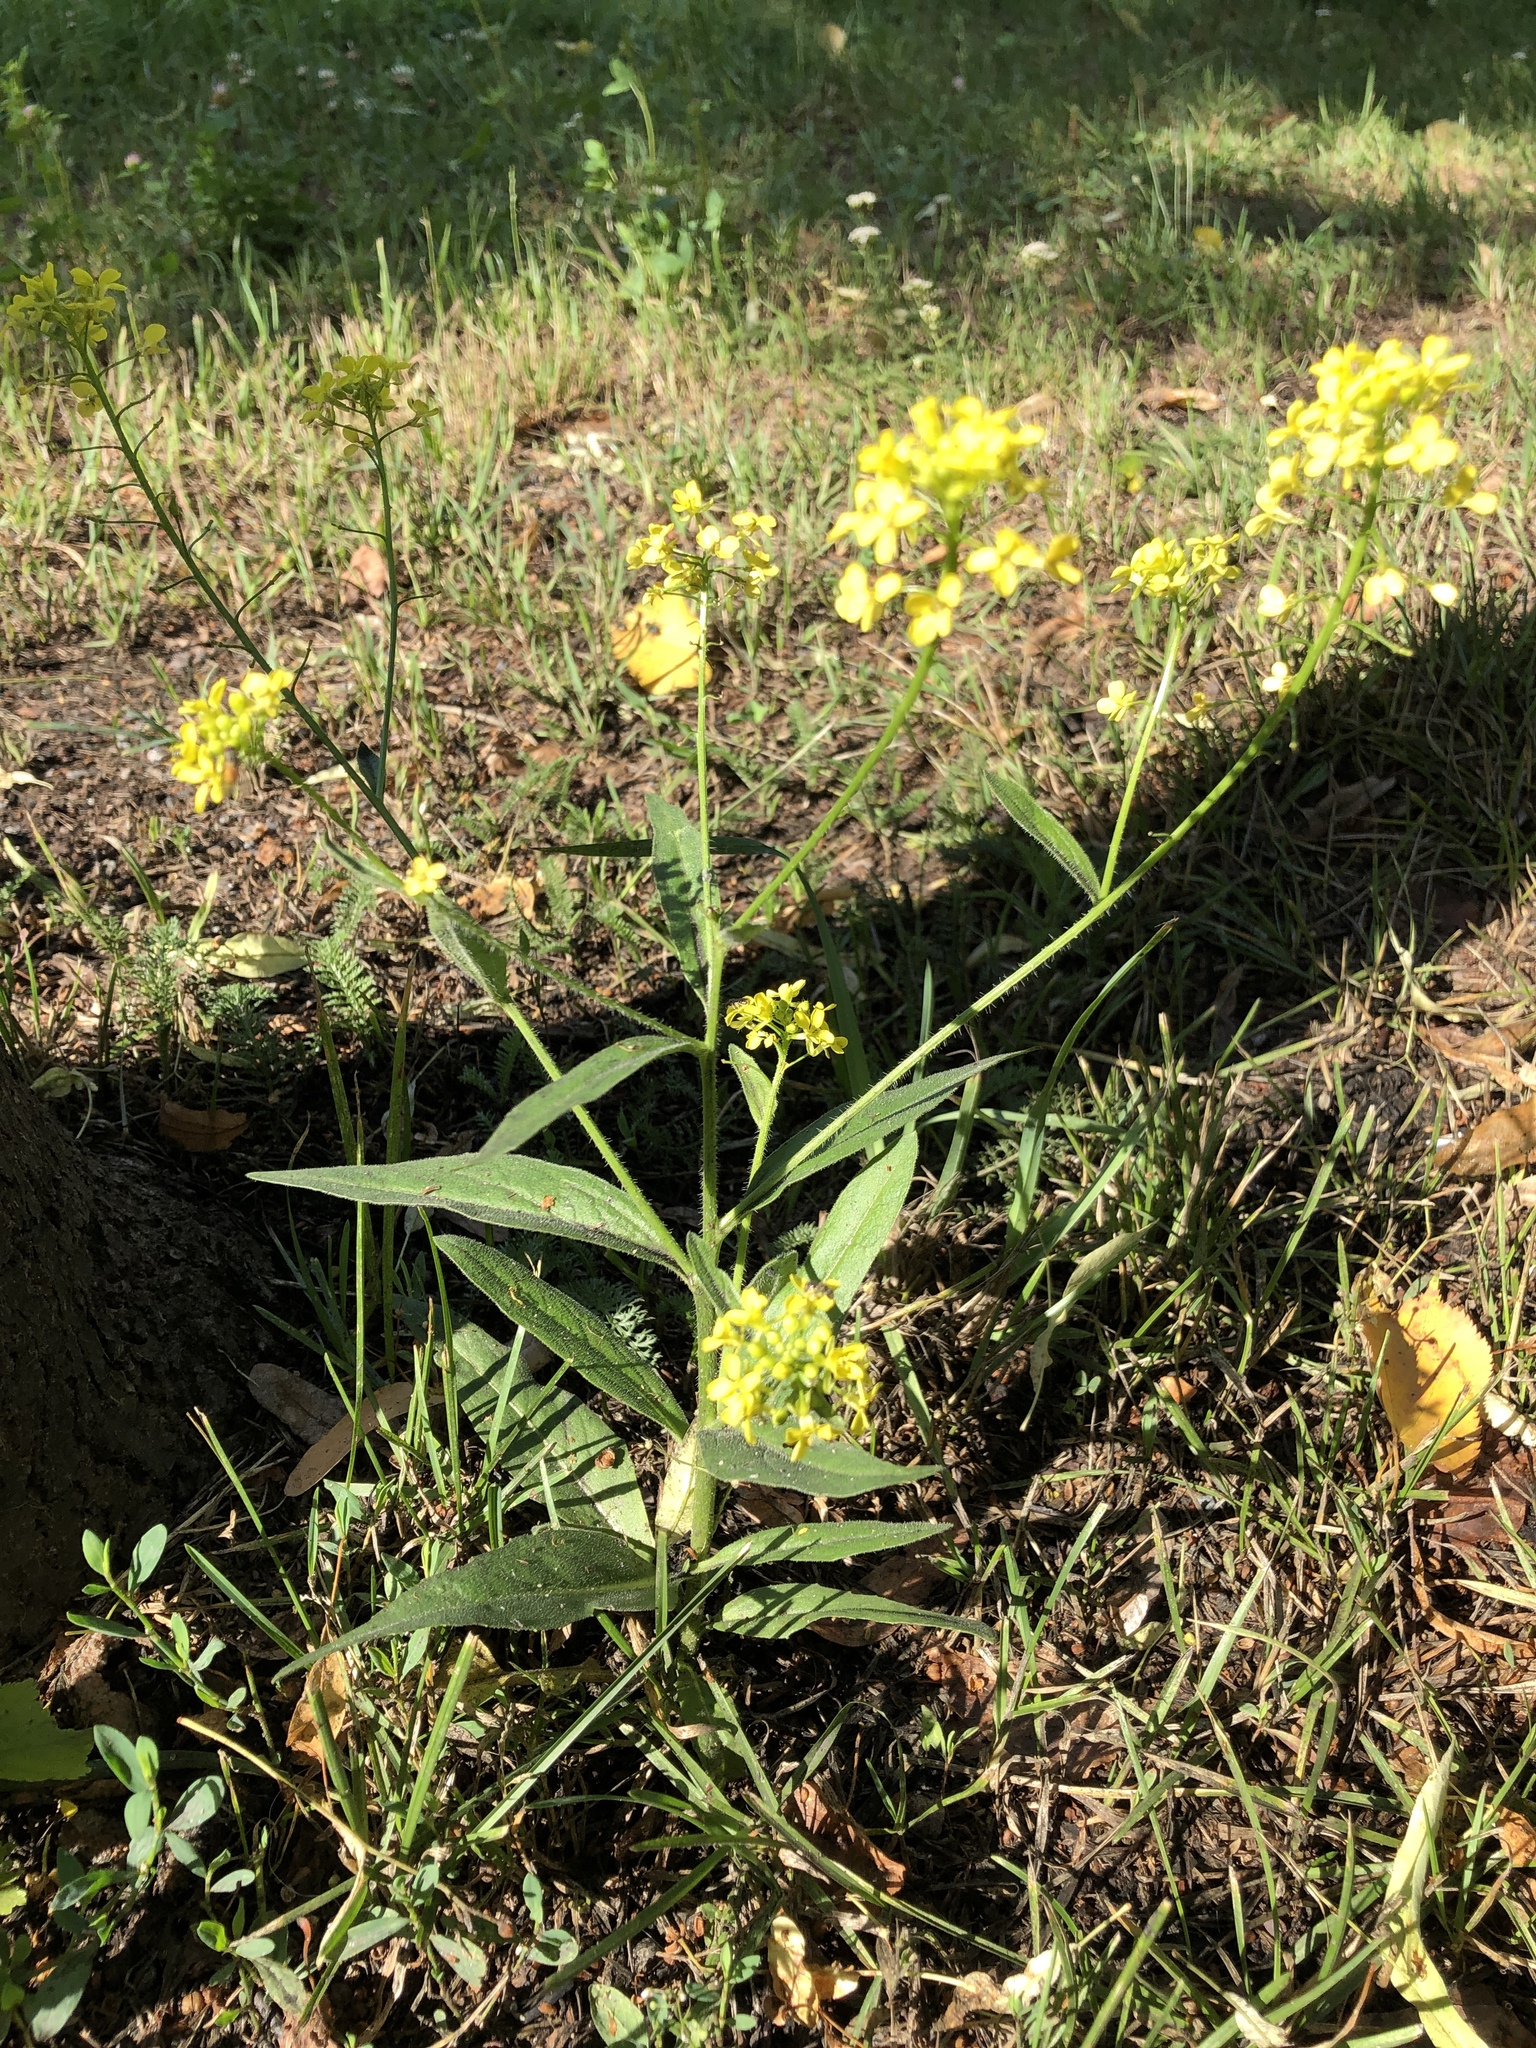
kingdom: Plantae
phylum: Tracheophyta
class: Magnoliopsida
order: Brassicales
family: Brassicaceae
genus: Erysimum
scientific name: Erysimum cheiranthoides
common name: Treacle mustard
